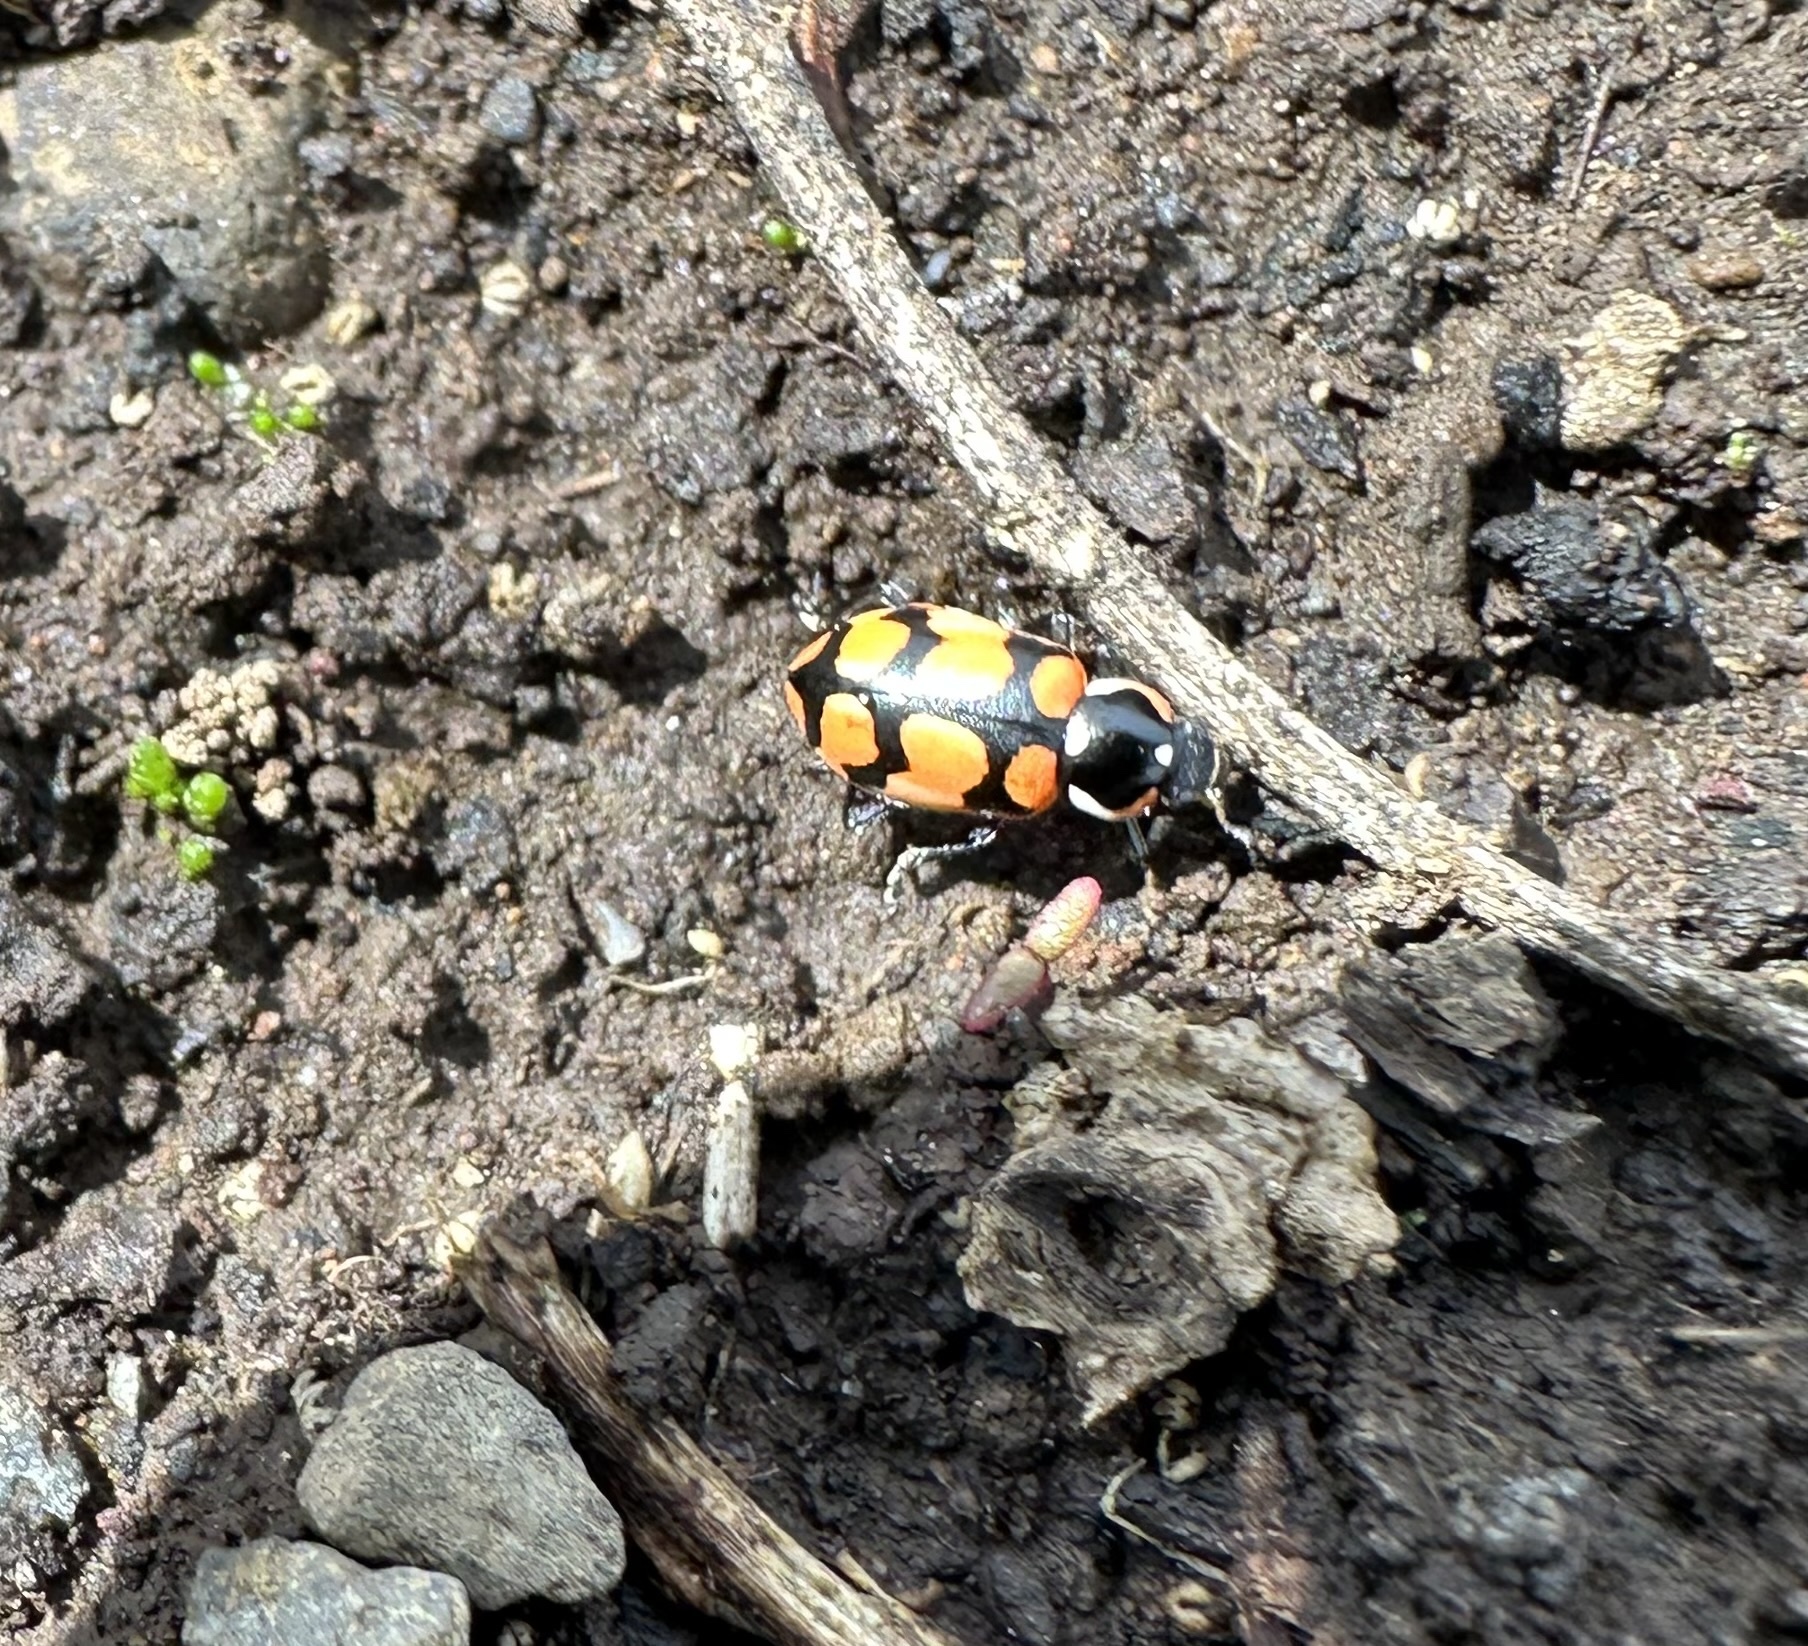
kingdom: Animalia
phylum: Arthropoda
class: Insecta
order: Coleoptera
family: Coccinellidae
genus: Eriopis
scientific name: Eriopis chilensis
